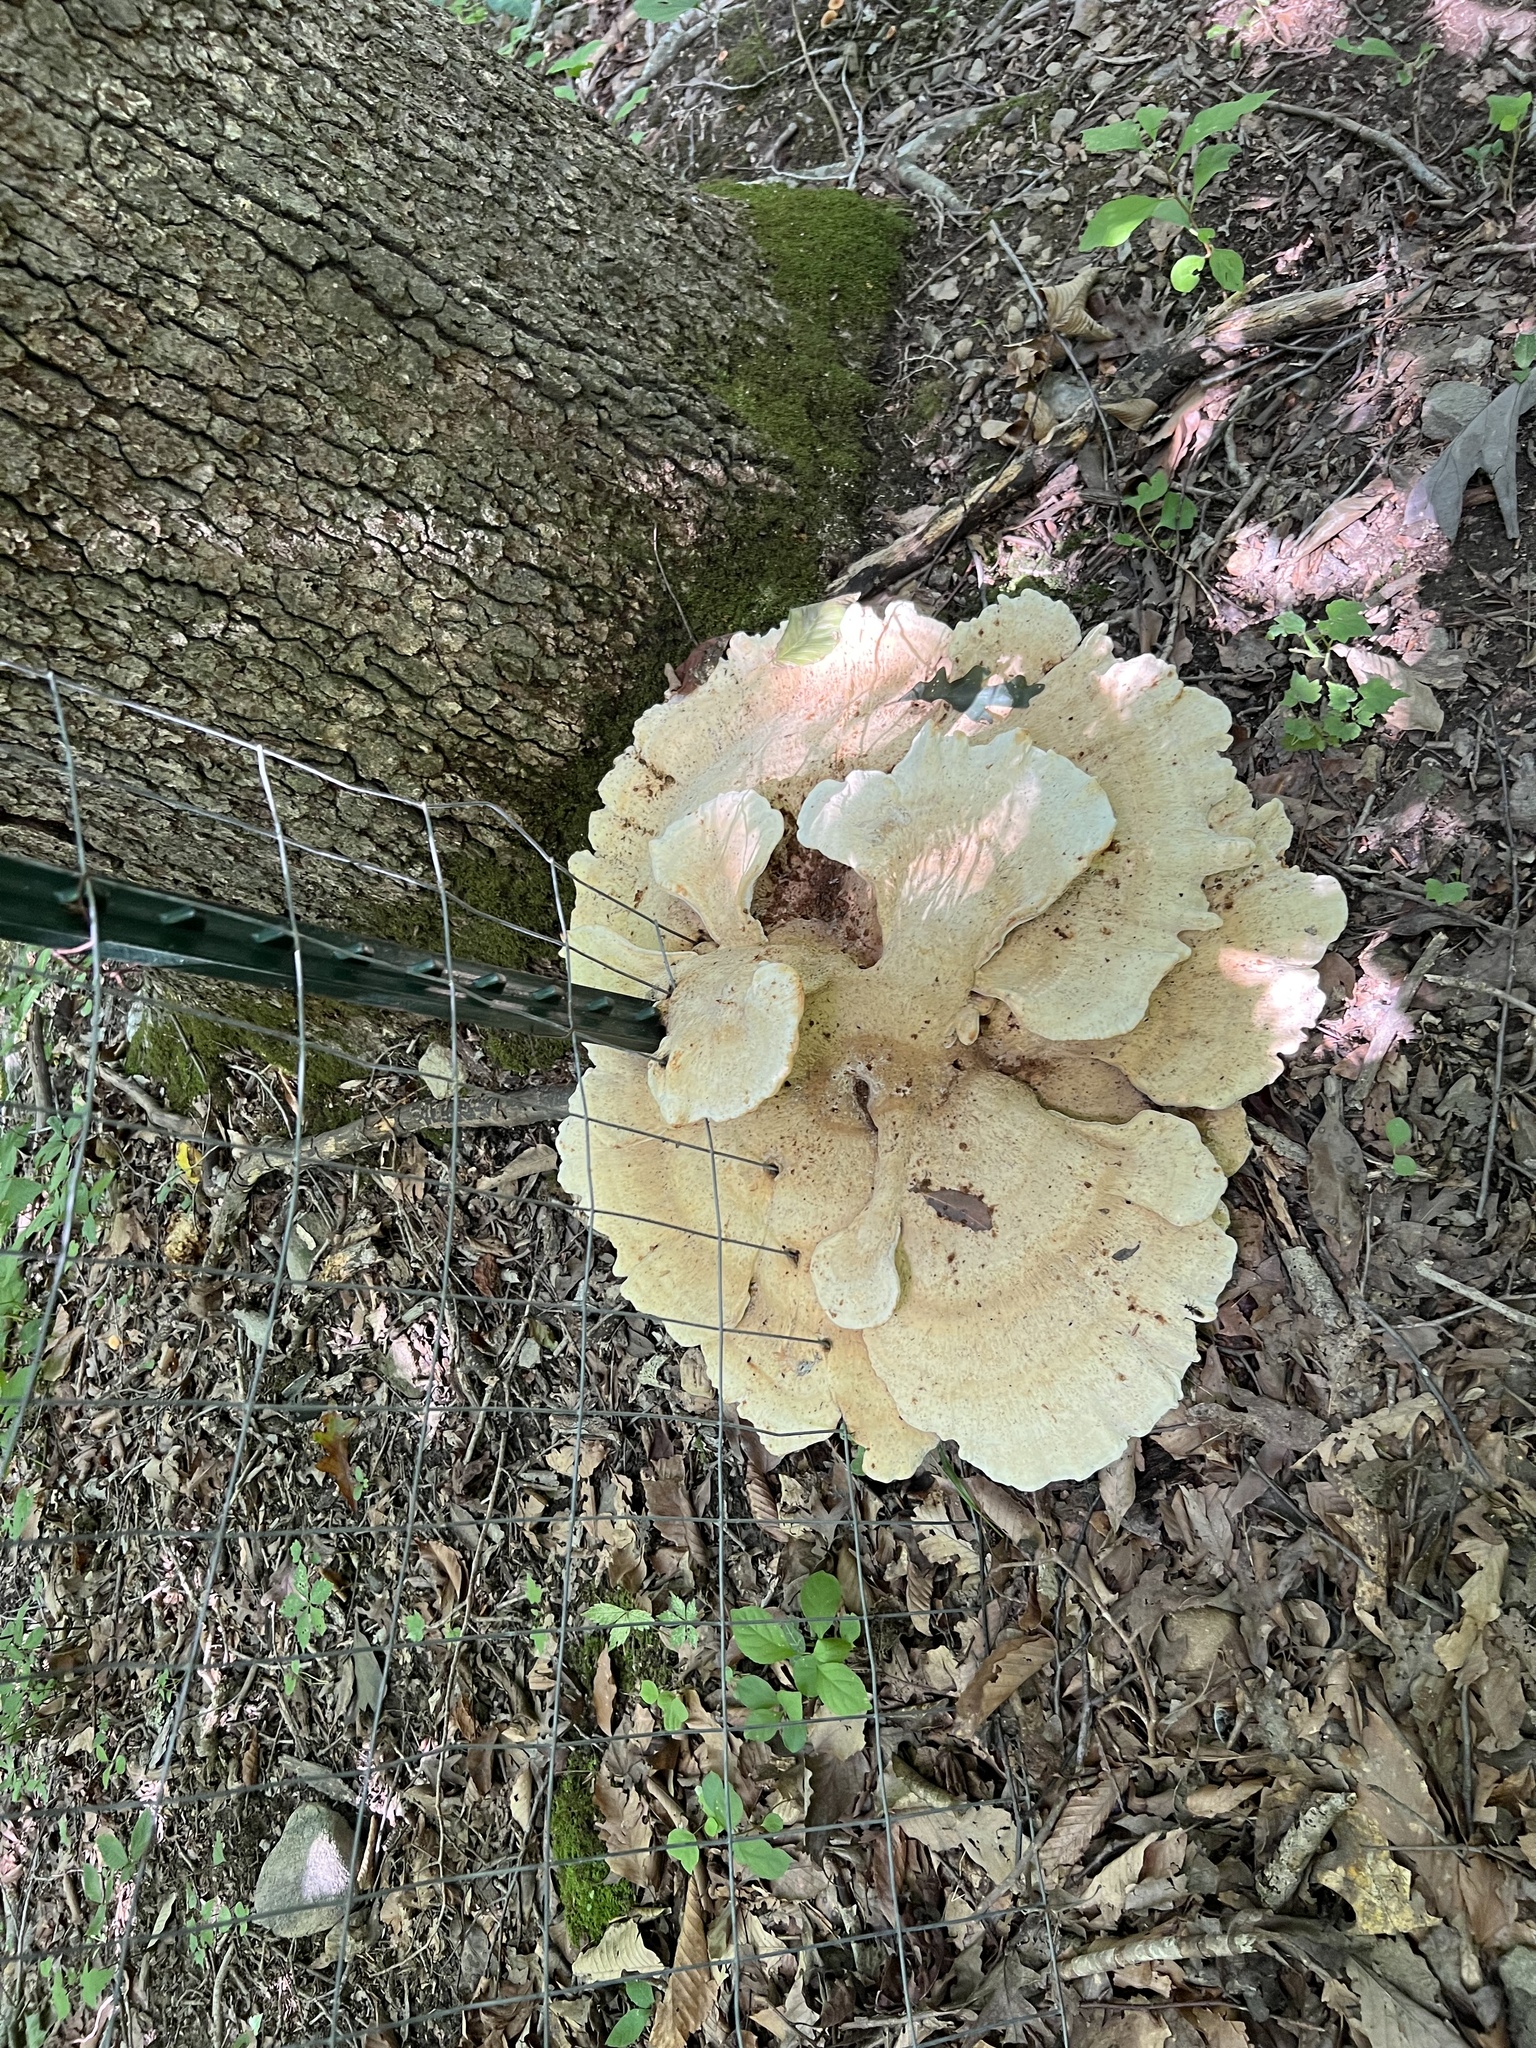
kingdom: Fungi
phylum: Basidiomycota
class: Agaricomycetes
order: Russulales
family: Bondarzewiaceae
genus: Bondarzewia
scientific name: Bondarzewia berkeleyi
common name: Berkeley's polypore
